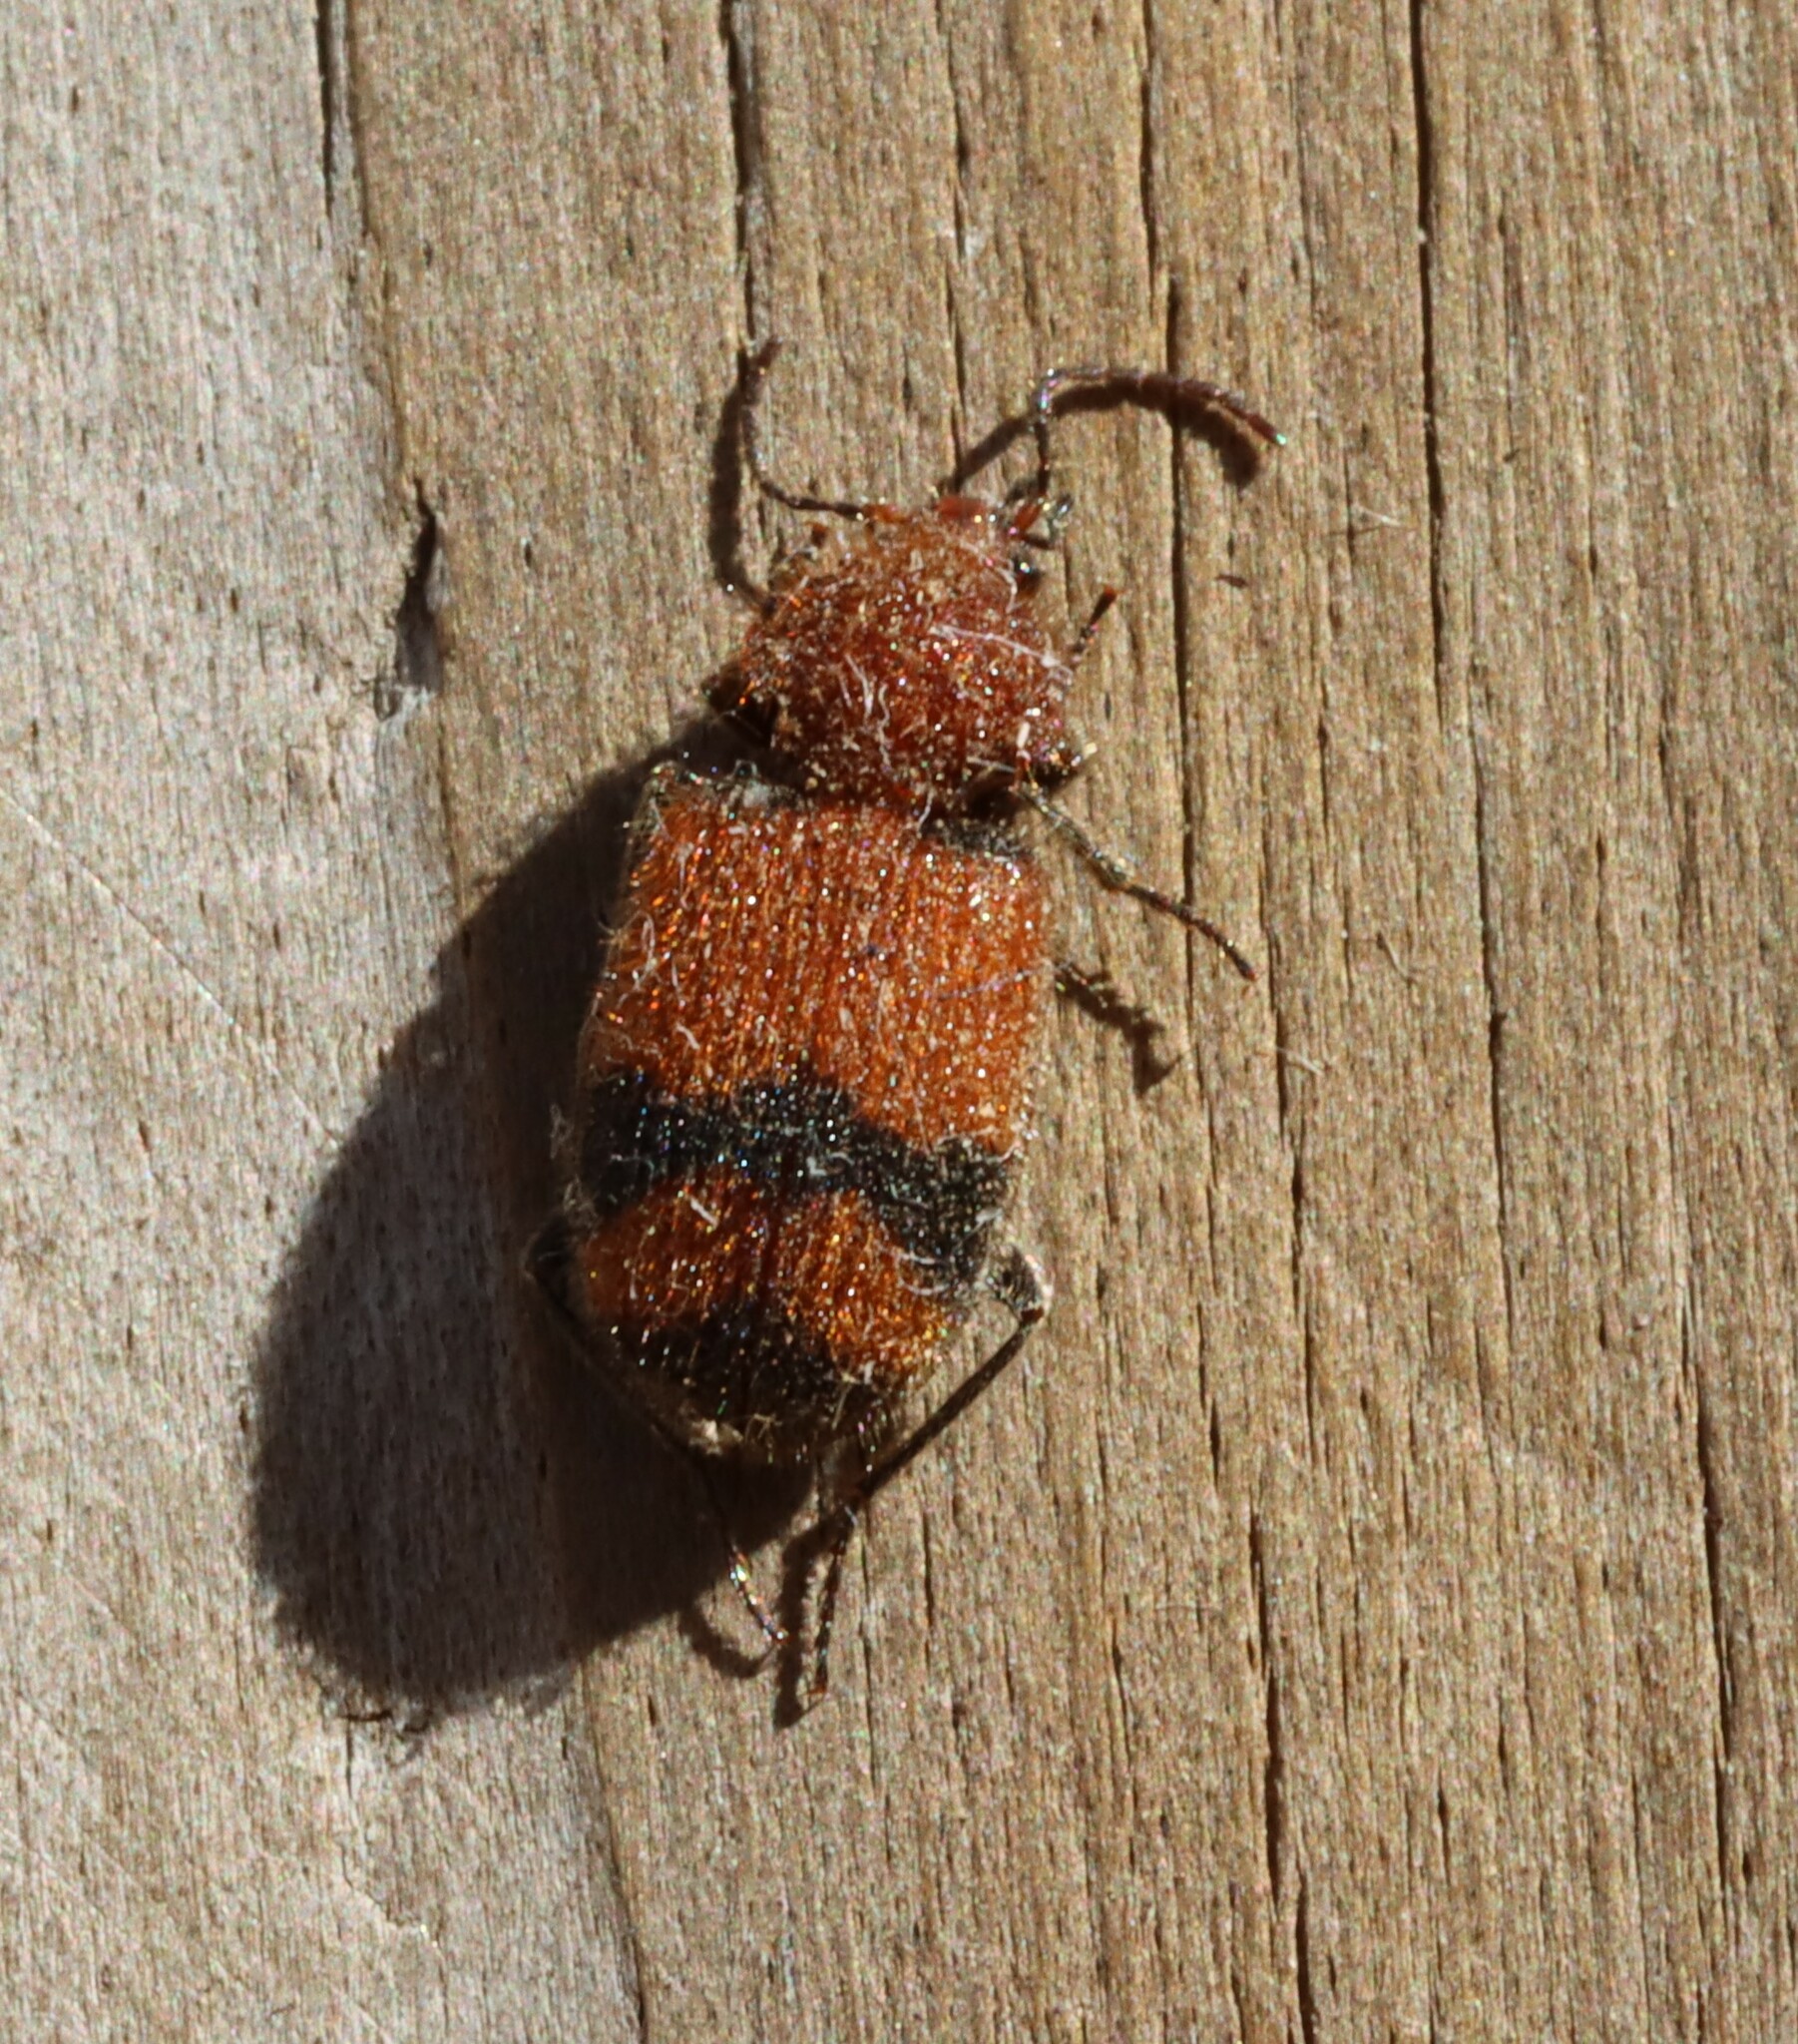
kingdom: Animalia
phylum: Arthropoda
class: Insecta
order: Coleoptera
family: Carabidae
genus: Panagaeus
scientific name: Panagaeus fasciatus
